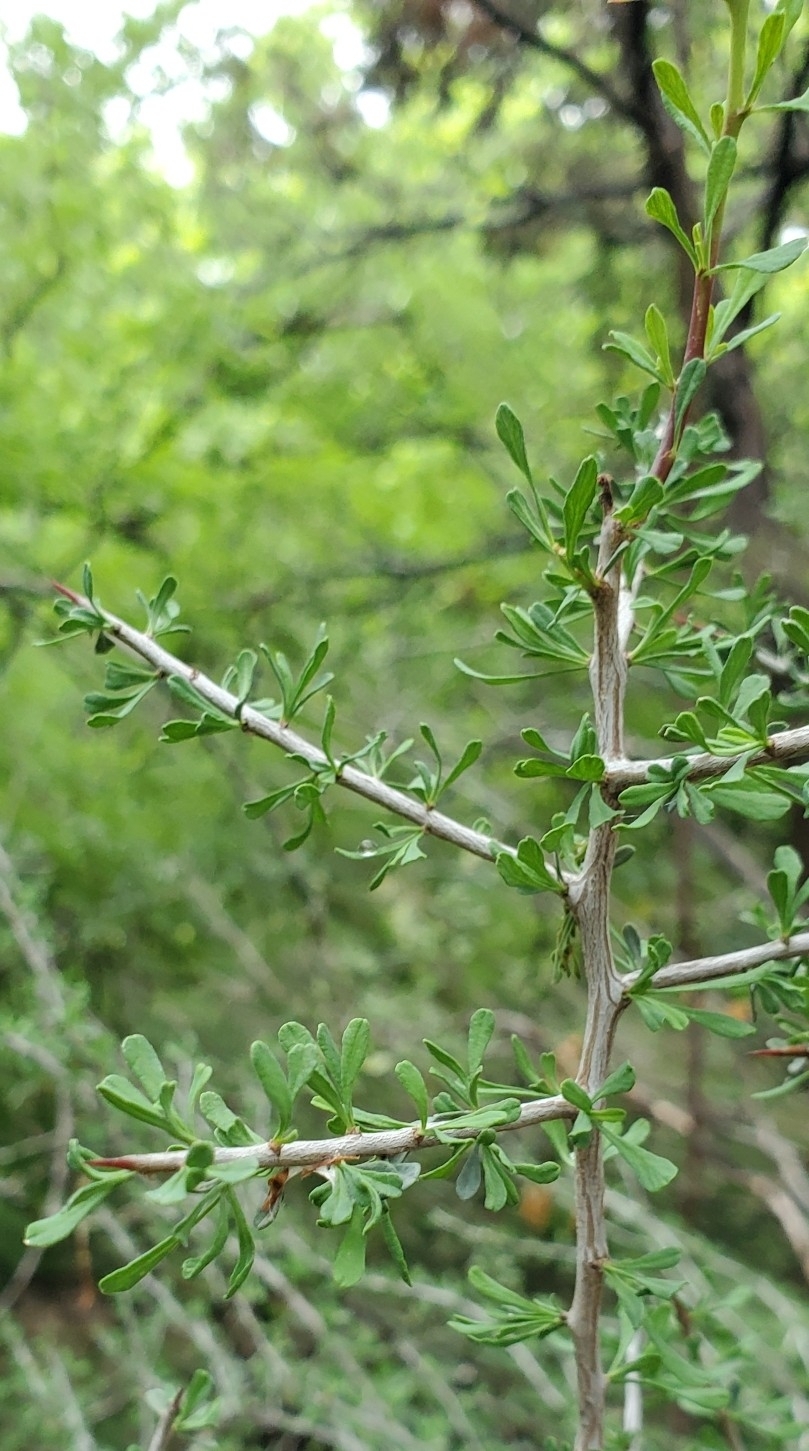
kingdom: Plantae
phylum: Tracheophyta
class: Magnoliopsida
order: Rosales
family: Rhamnaceae
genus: Condalia
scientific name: Condalia spathulata
